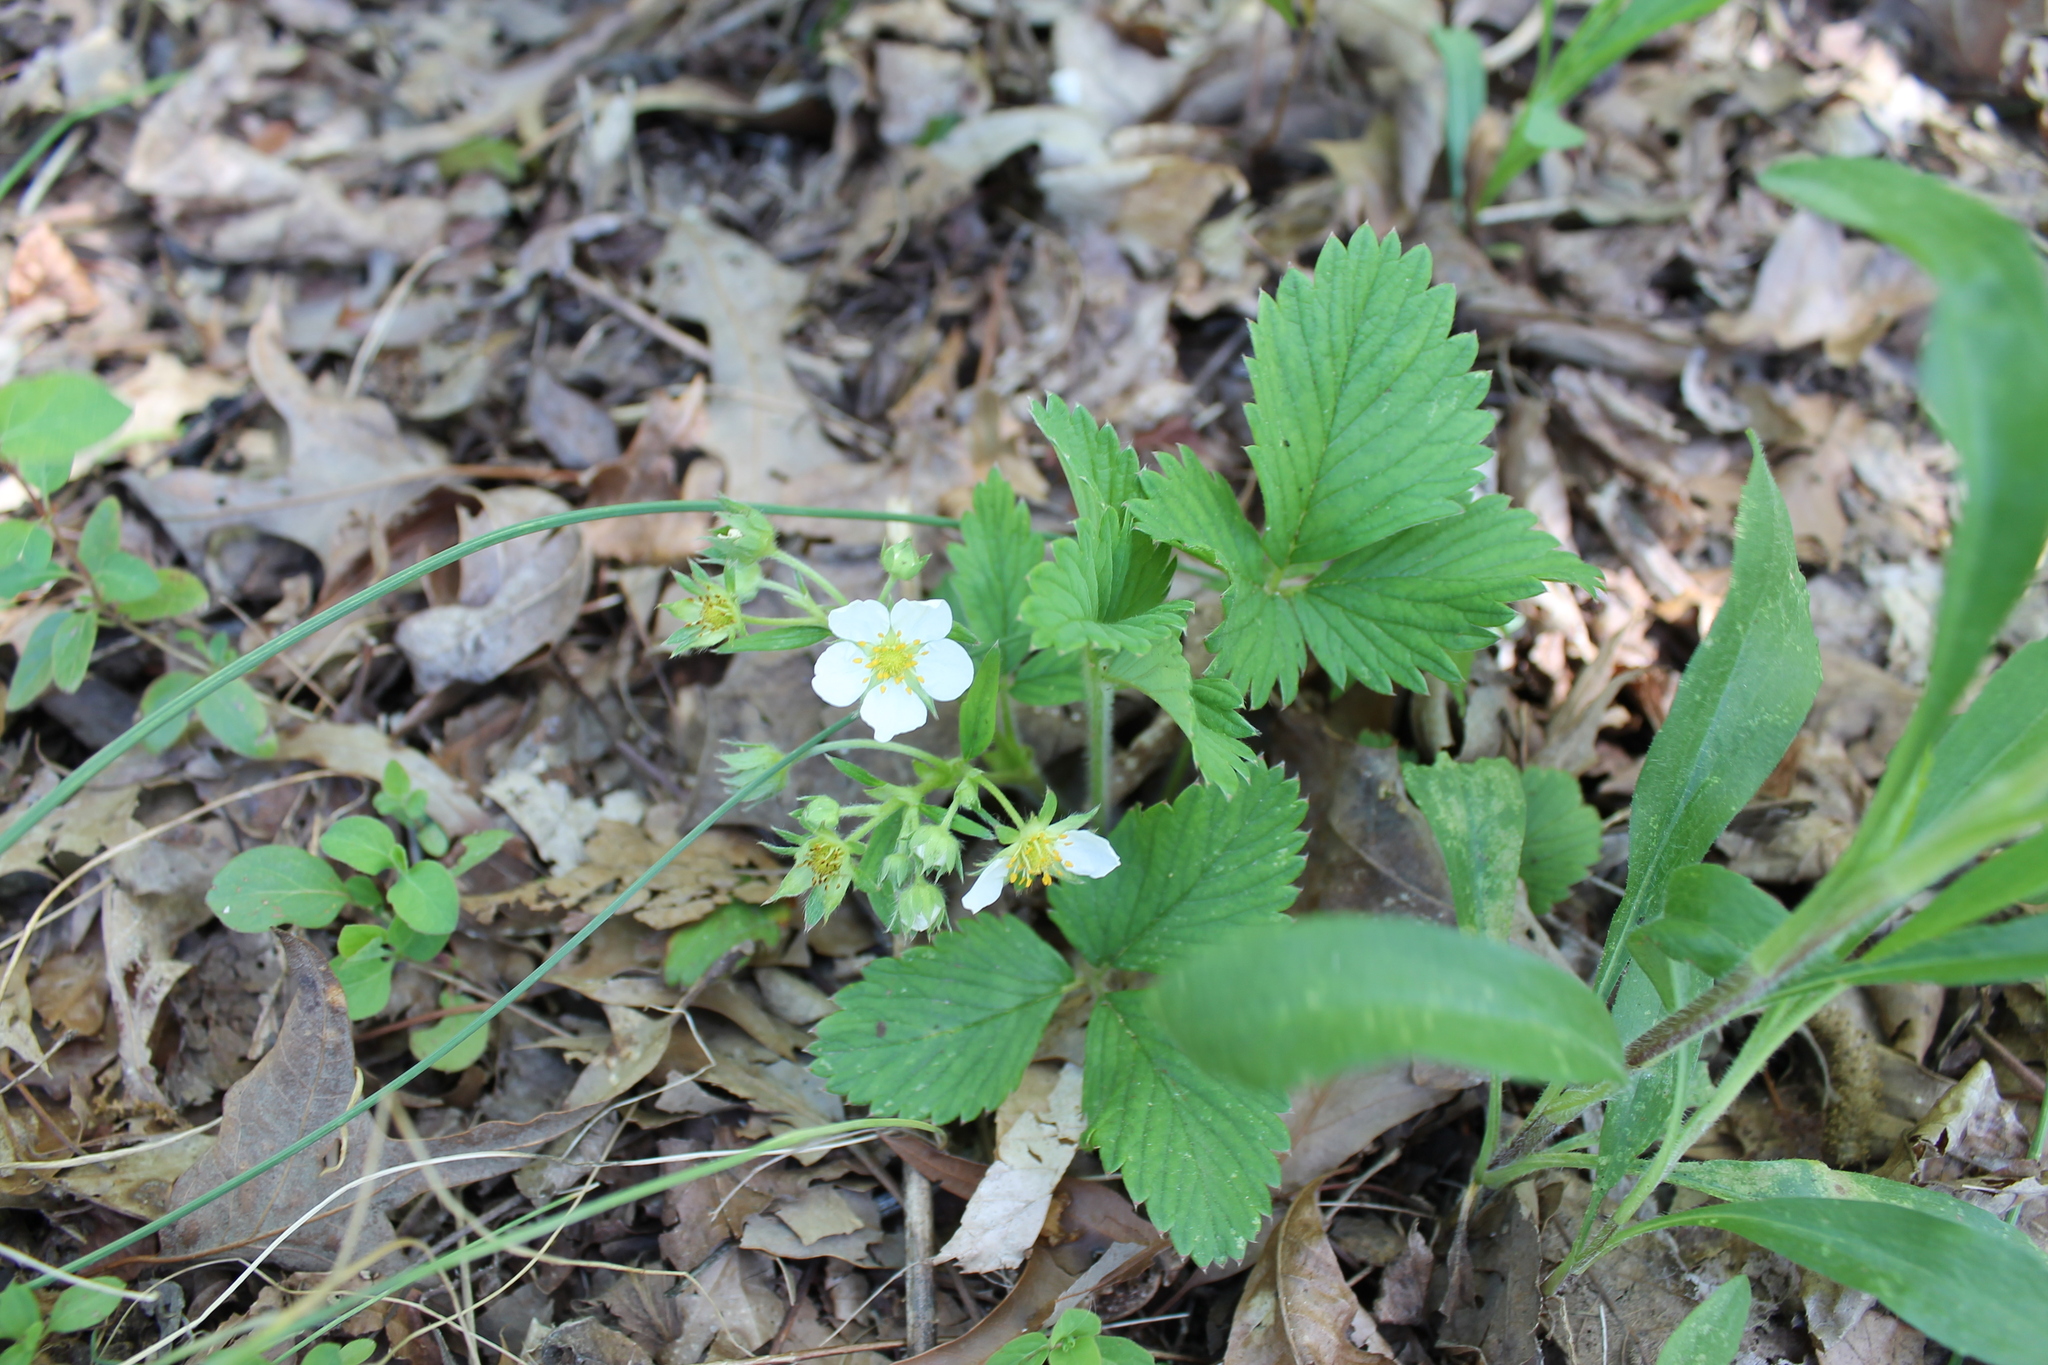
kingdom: Plantae
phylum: Tracheophyta
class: Magnoliopsida
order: Rosales
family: Rosaceae
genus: Fragaria
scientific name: Fragaria virginiana
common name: Thickleaved wild strawberry
